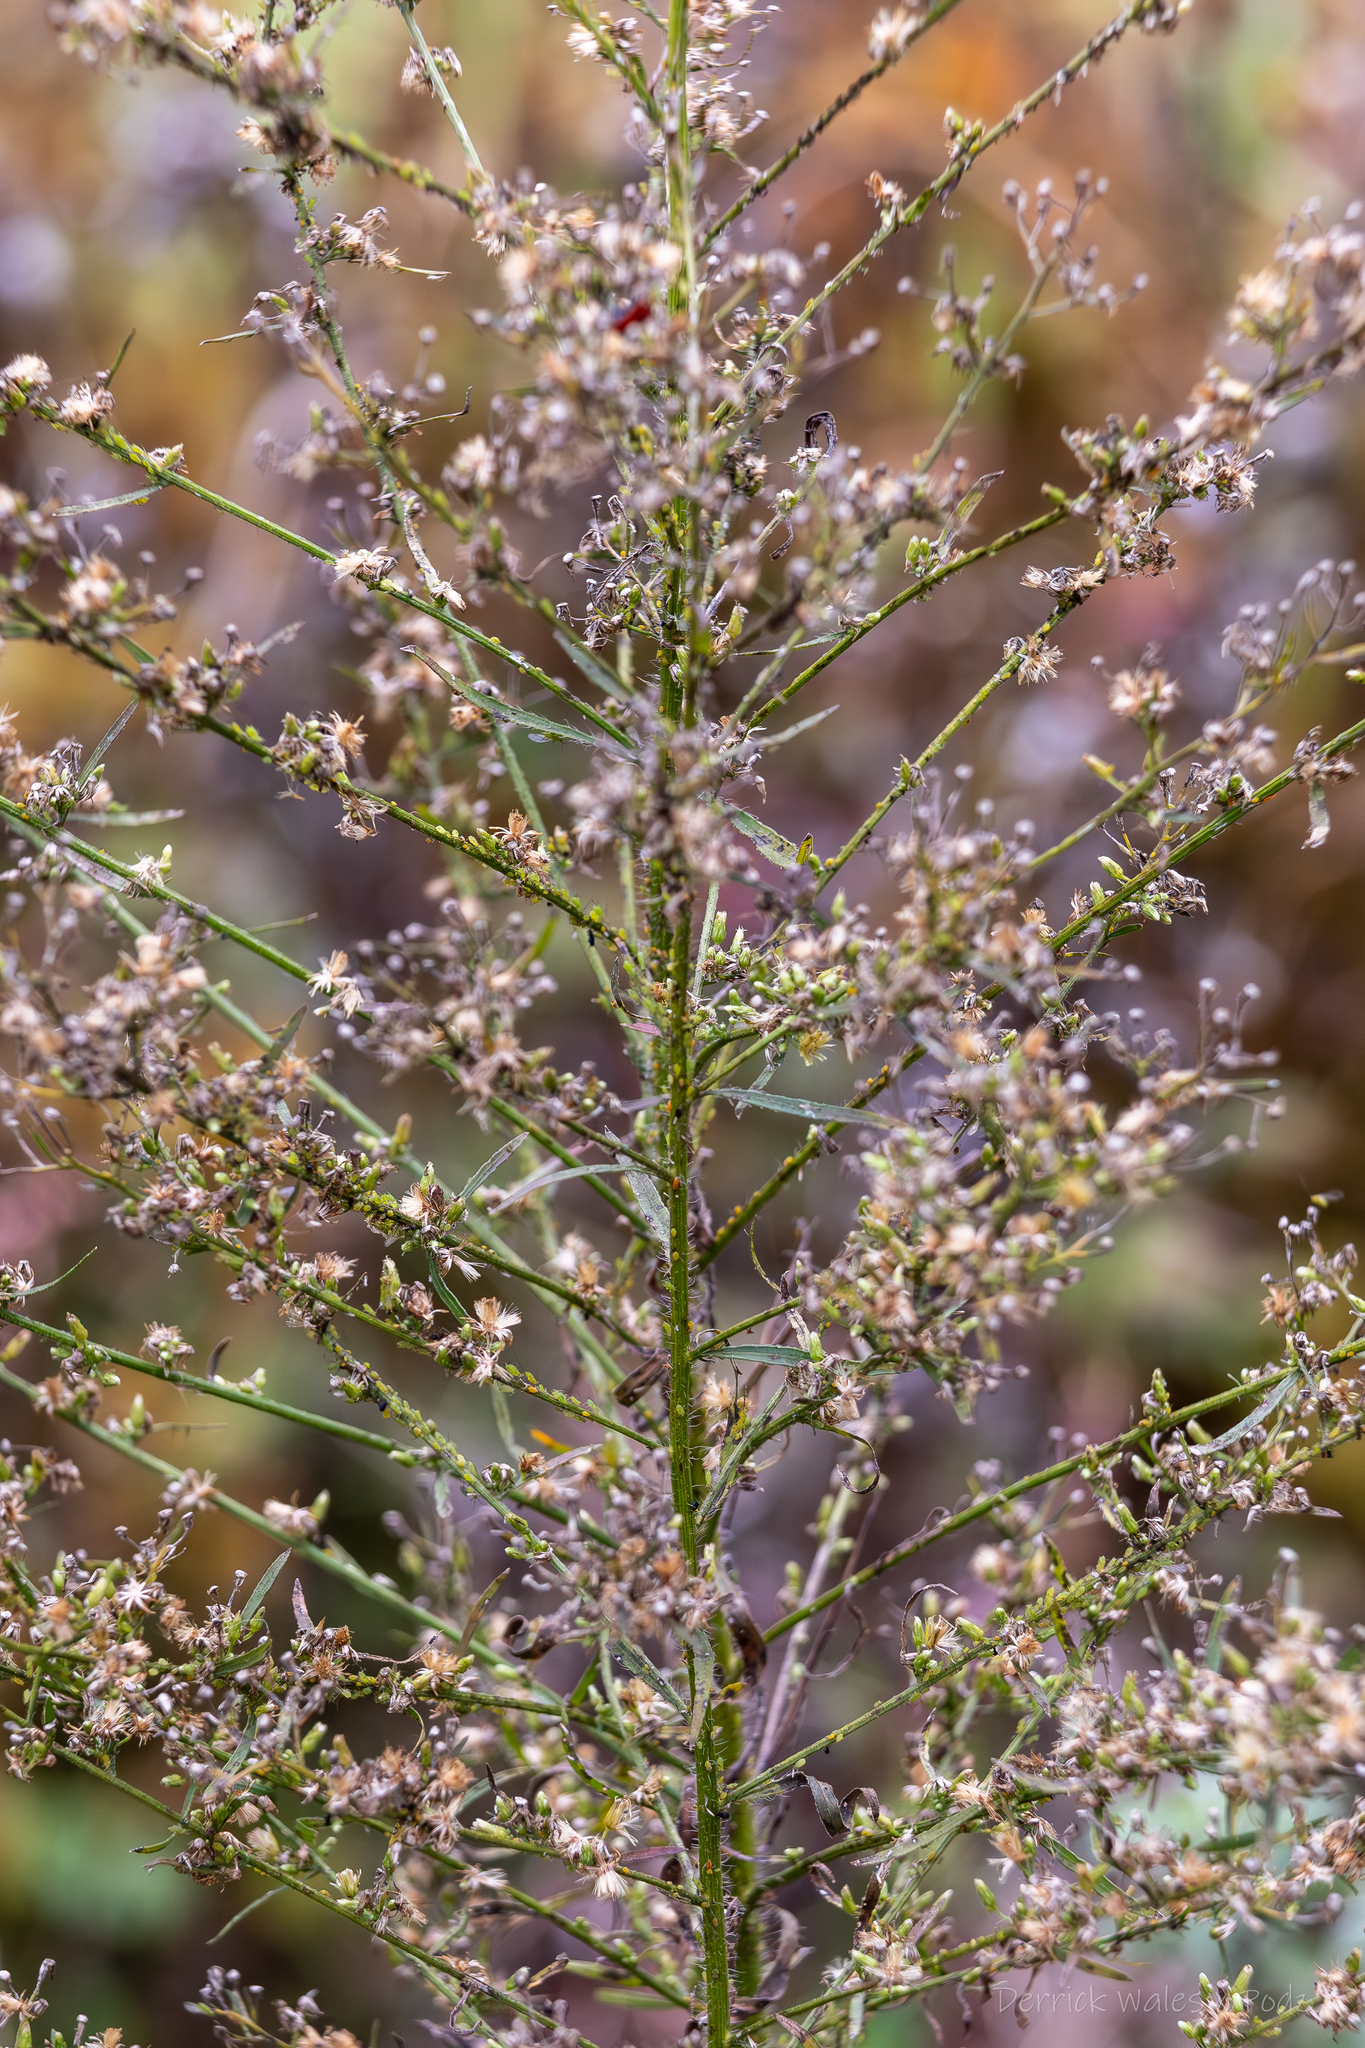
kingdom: Plantae
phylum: Tracheophyta
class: Magnoliopsida
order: Asterales
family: Asteraceae
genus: Erigeron
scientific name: Erigeron canadensis
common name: Canadian fleabane
